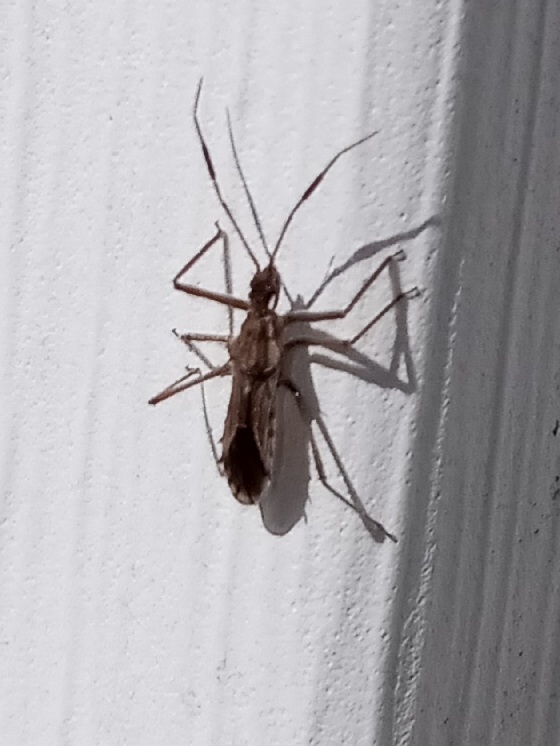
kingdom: Animalia
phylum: Arthropoda
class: Insecta
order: Hemiptera
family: Reduviidae
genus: Atrachelus
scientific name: Atrachelus cinereus
